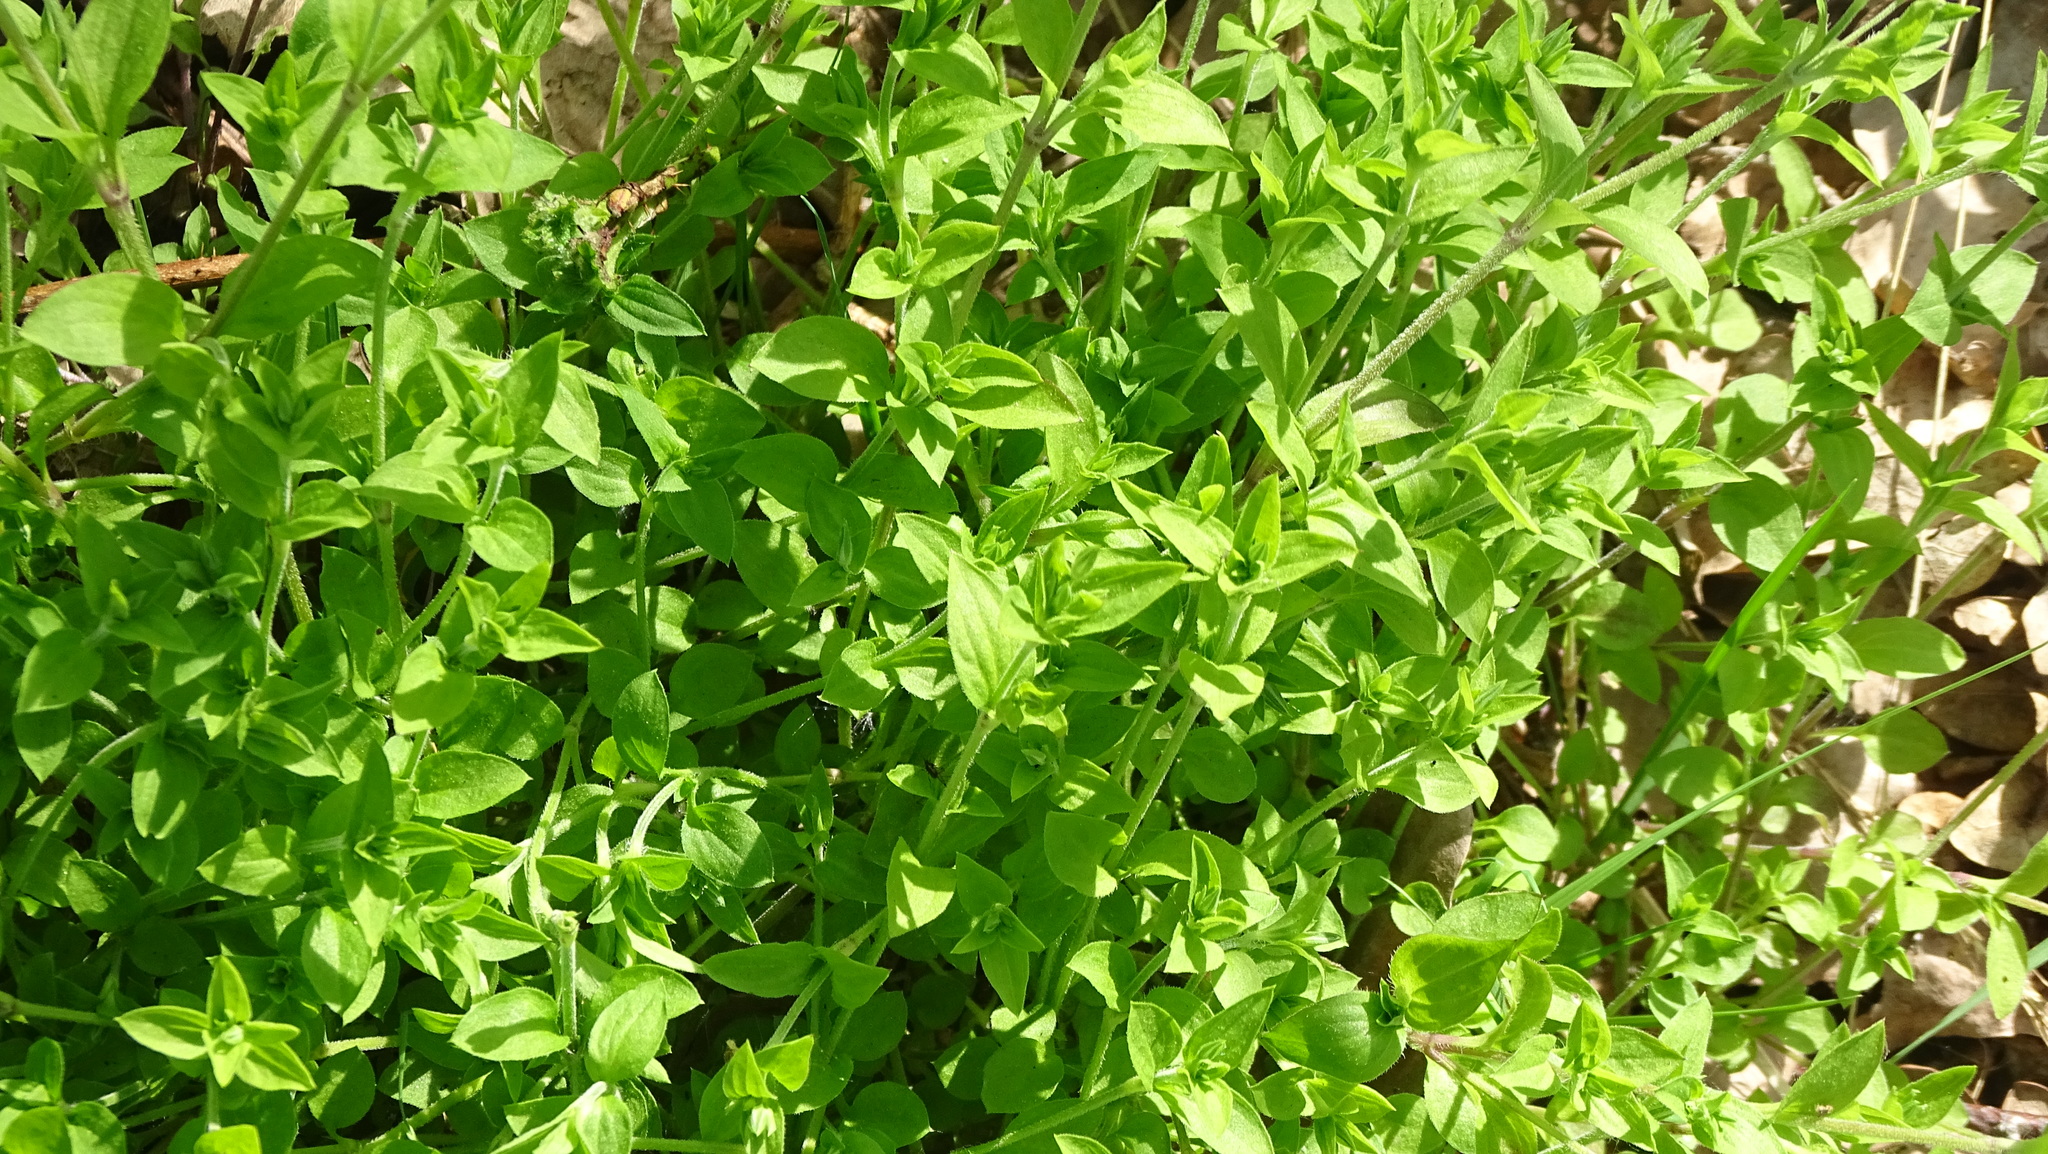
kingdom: Plantae
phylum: Tracheophyta
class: Magnoliopsida
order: Caryophyllales
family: Caryophyllaceae
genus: Moehringia
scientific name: Moehringia trinervia
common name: Three-nerved sandwort
